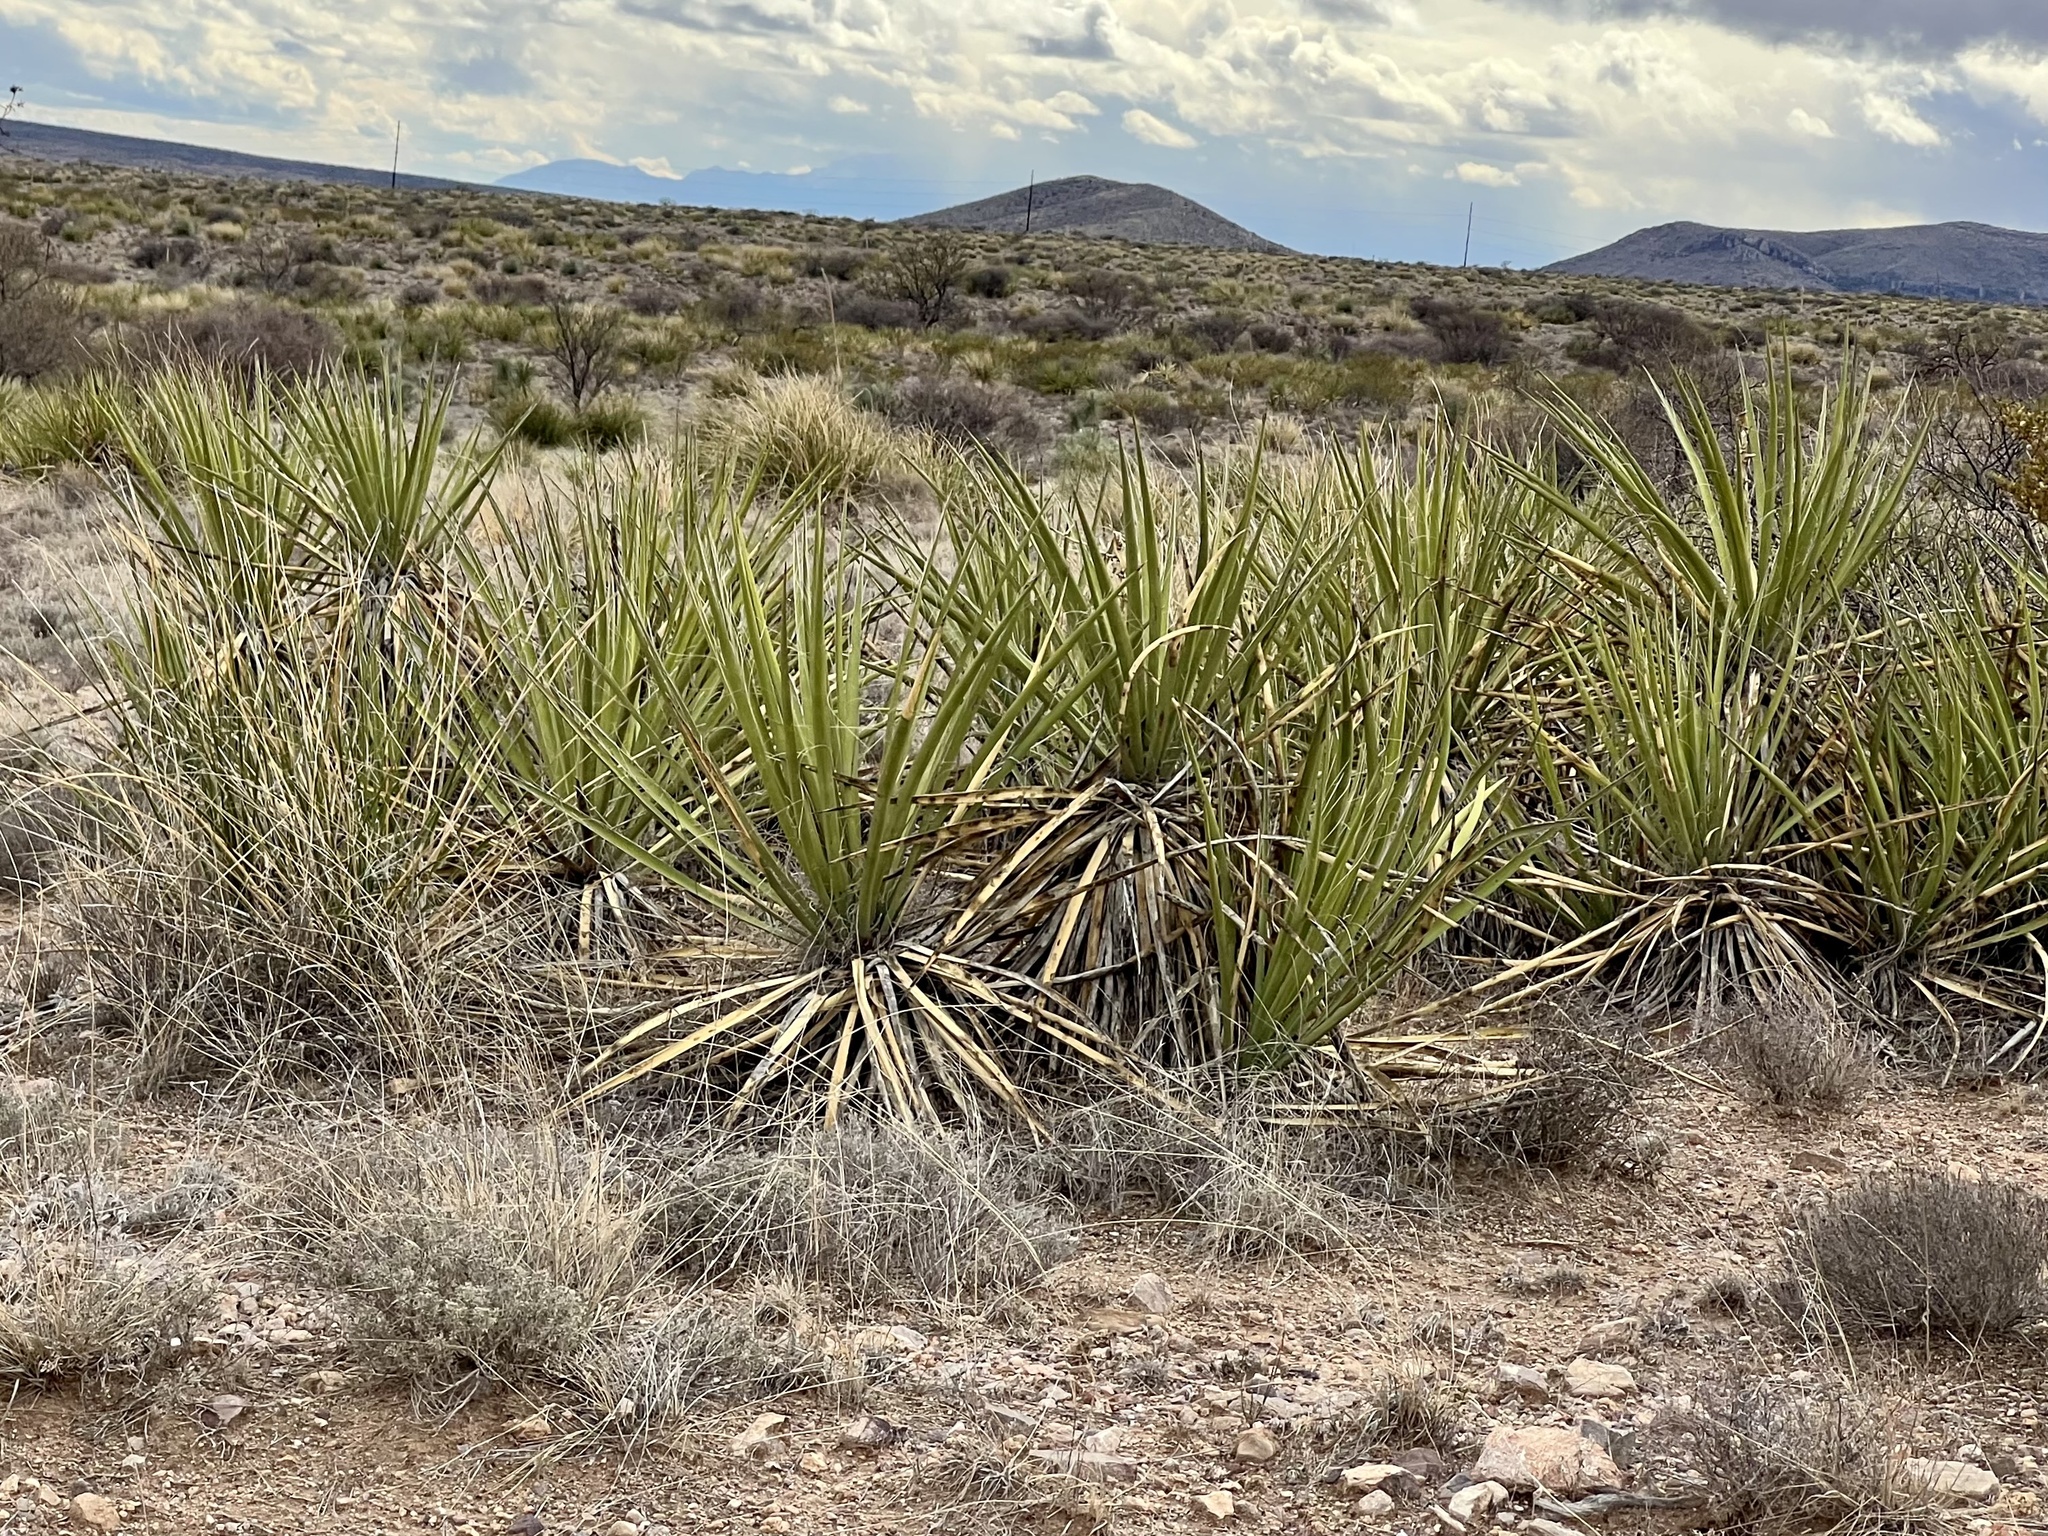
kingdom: Plantae
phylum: Tracheophyta
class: Liliopsida
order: Asparagales
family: Asparagaceae
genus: Yucca
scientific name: Yucca baccata
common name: Banana yucca
